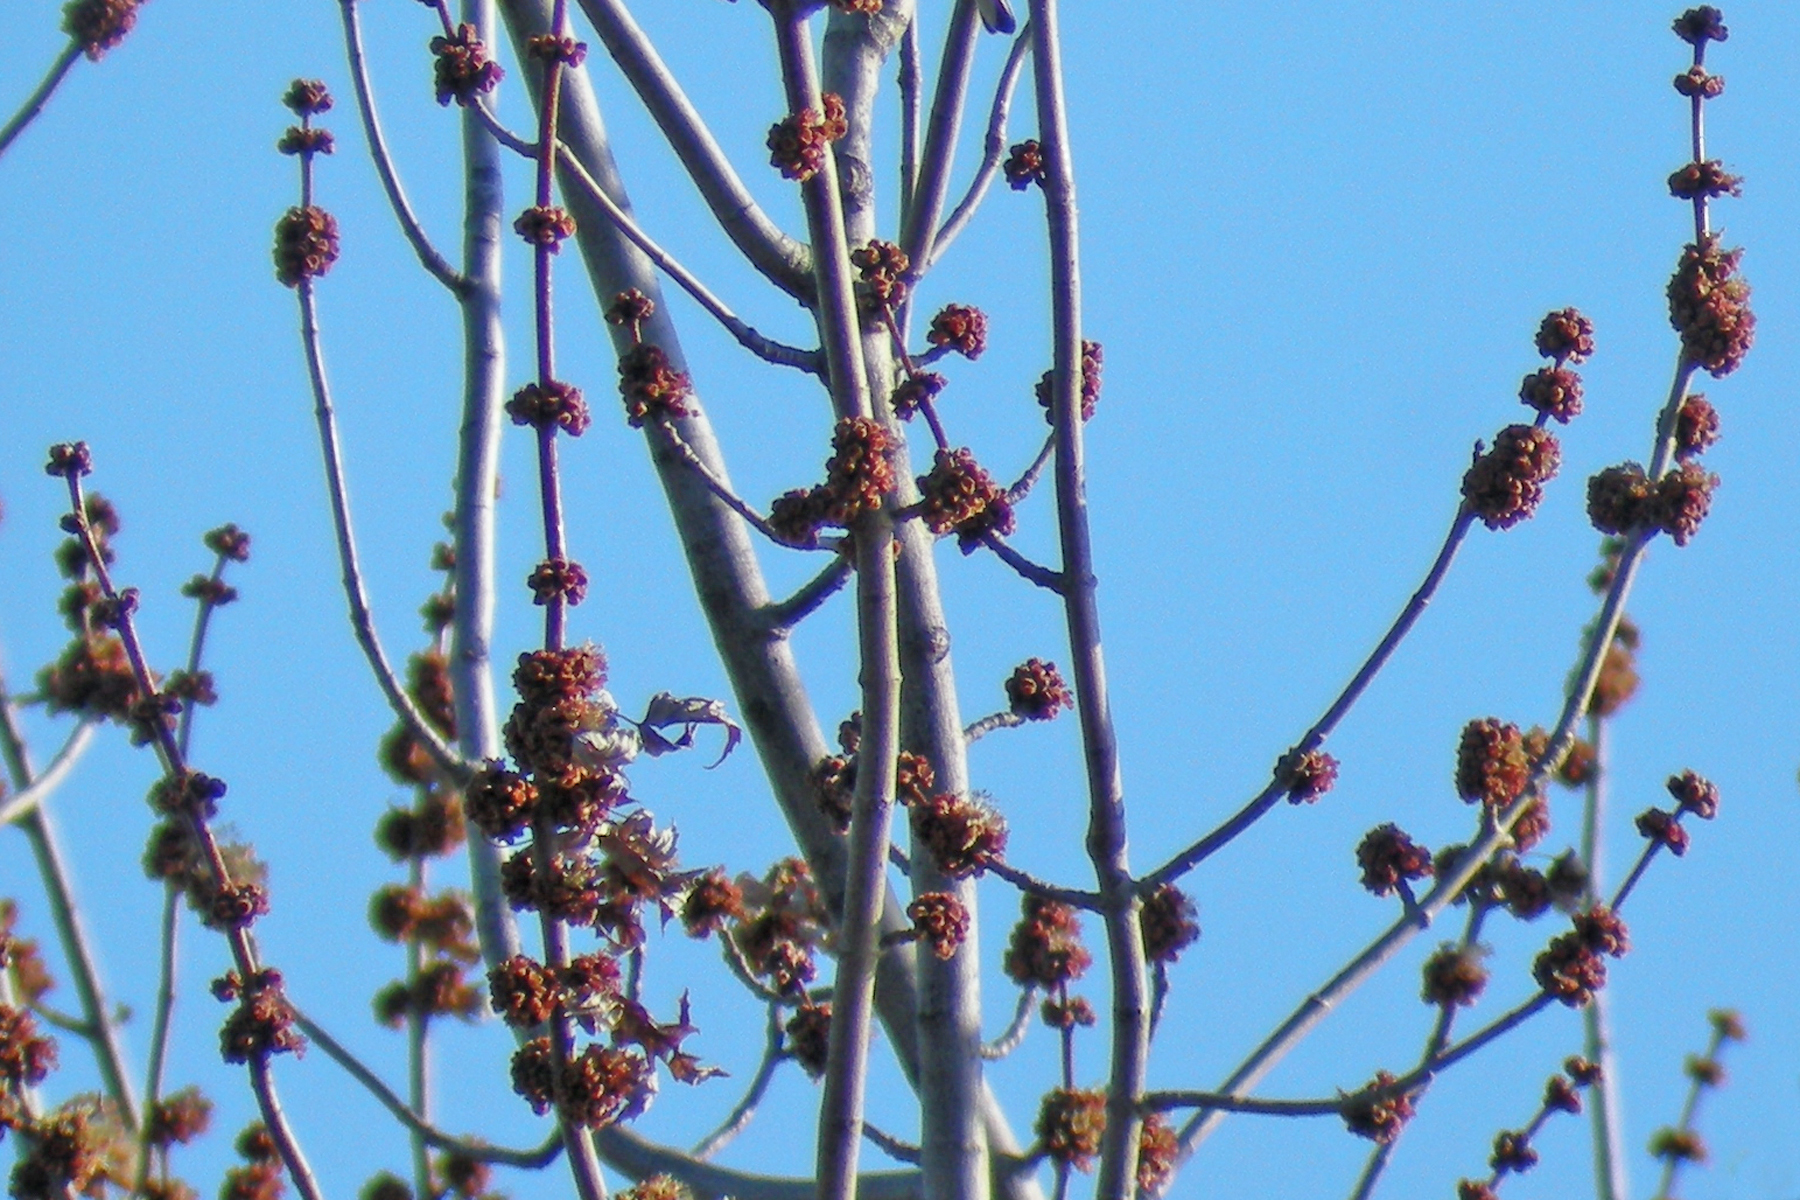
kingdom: Plantae
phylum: Tracheophyta
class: Magnoliopsida
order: Sapindales
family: Sapindaceae
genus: Acer
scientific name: Acer saccharinum
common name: Silver maple
